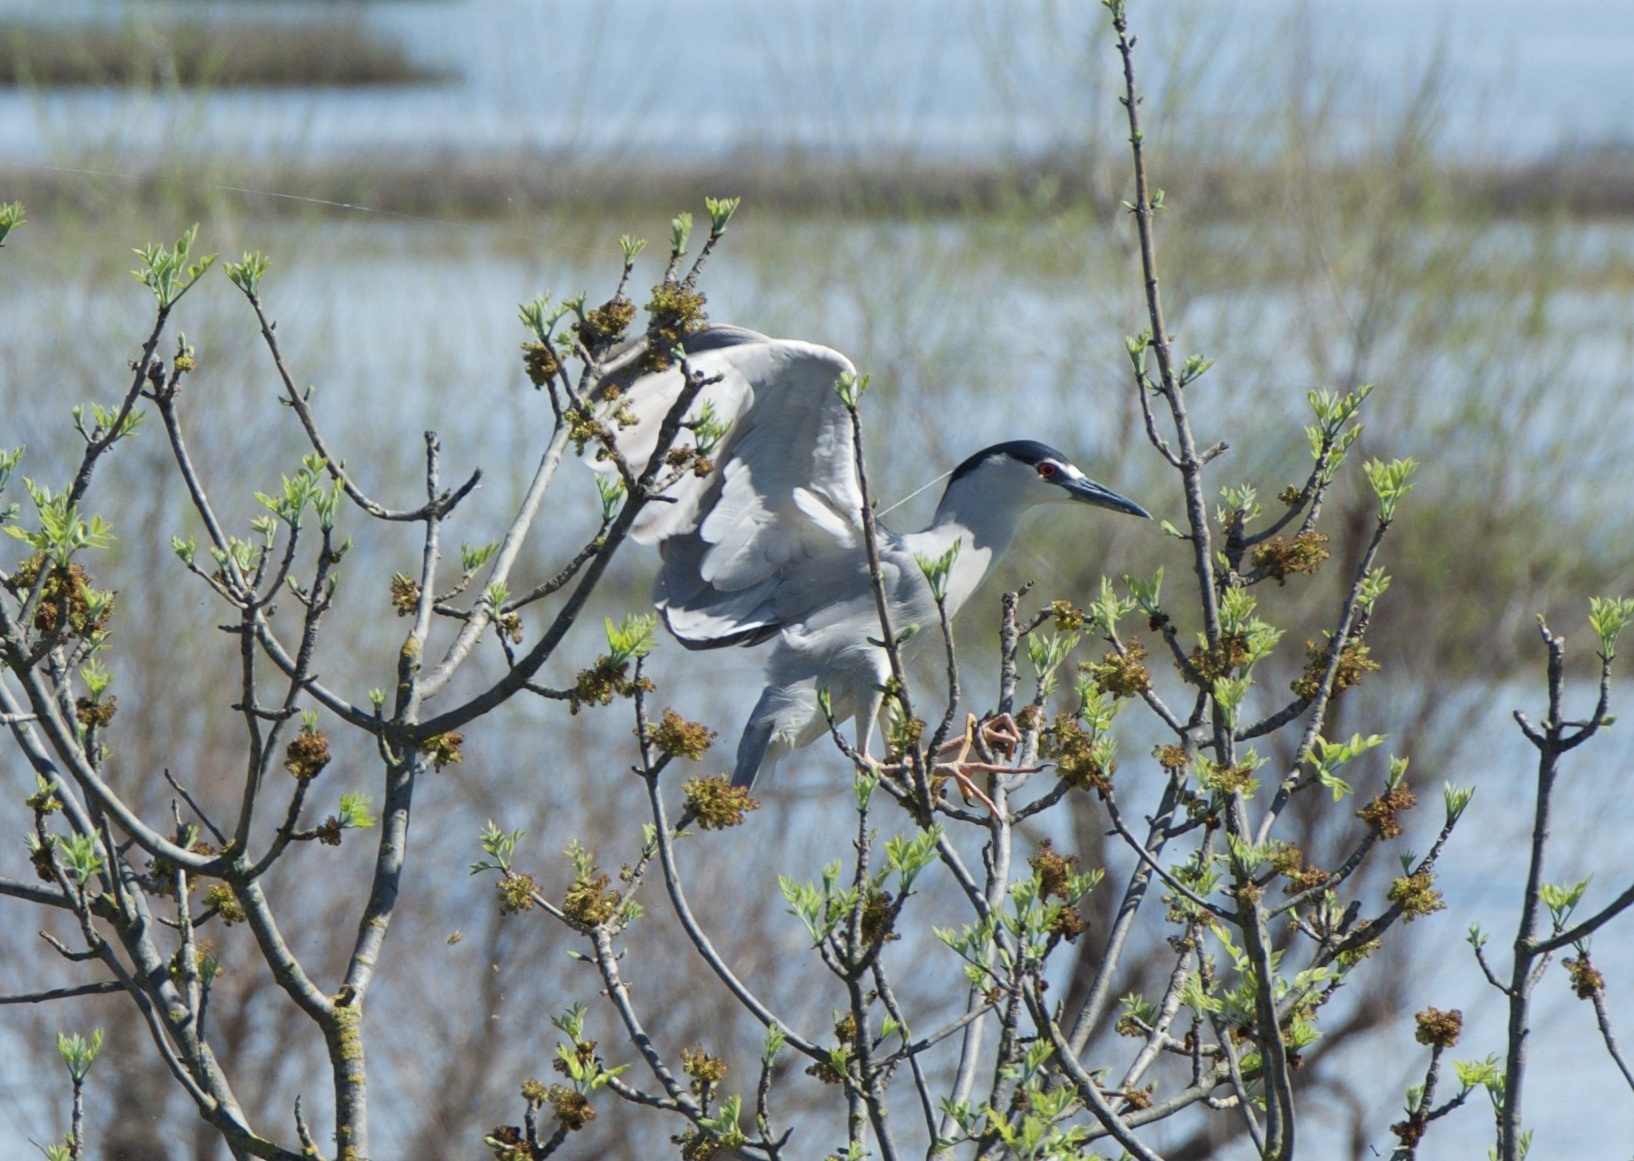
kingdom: Animalia
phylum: Chordata
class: Aves
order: Pelecaniformes
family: Ardeidae
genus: Nycticorax
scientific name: Nycticorax nycticorax
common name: Black-crowned night heron
